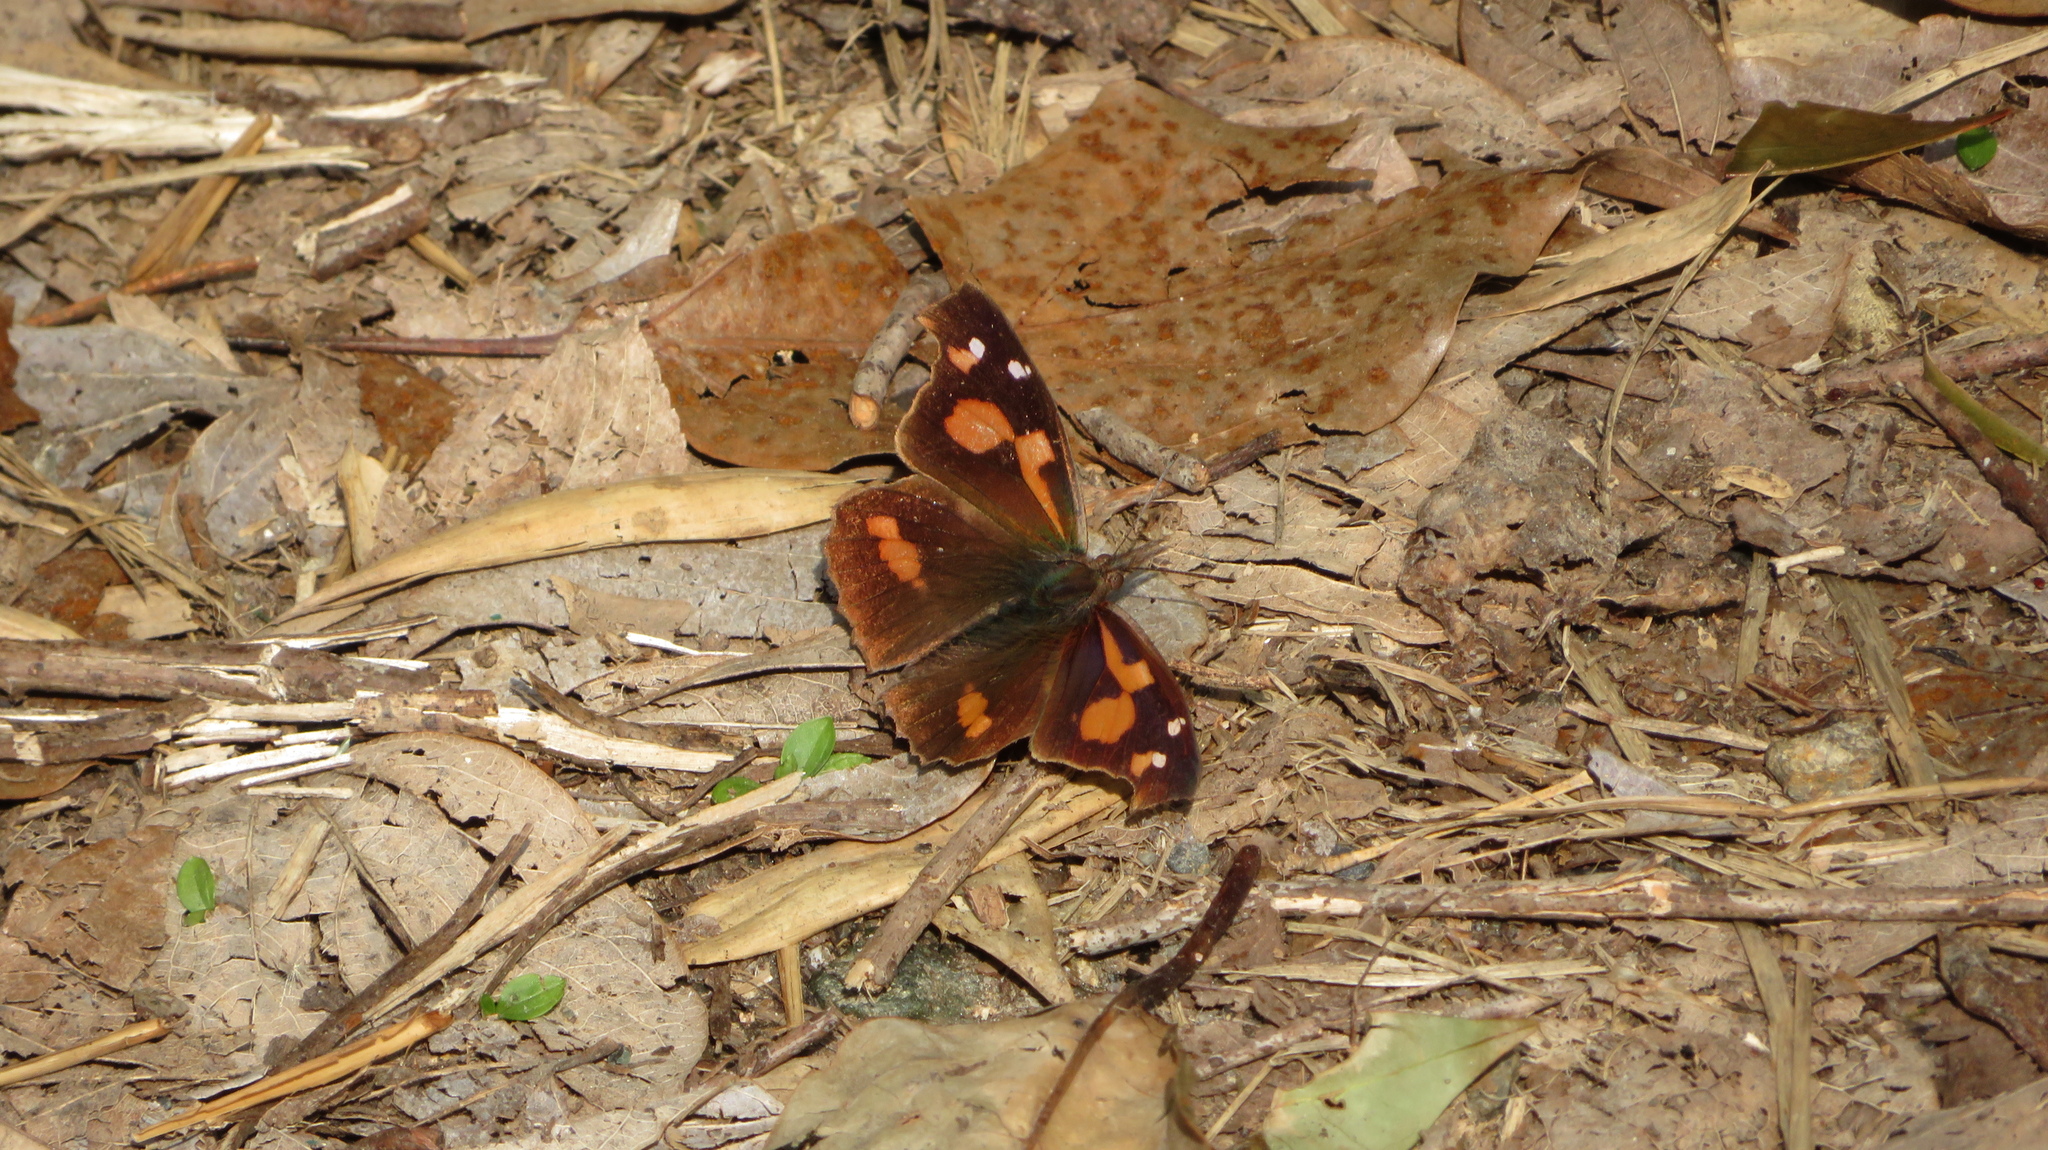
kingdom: Animalia
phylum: Arthropoda
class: Insecta
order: Lepidoptera
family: Nymphalidae
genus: Libythea
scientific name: Libythea lepita
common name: Common beak
